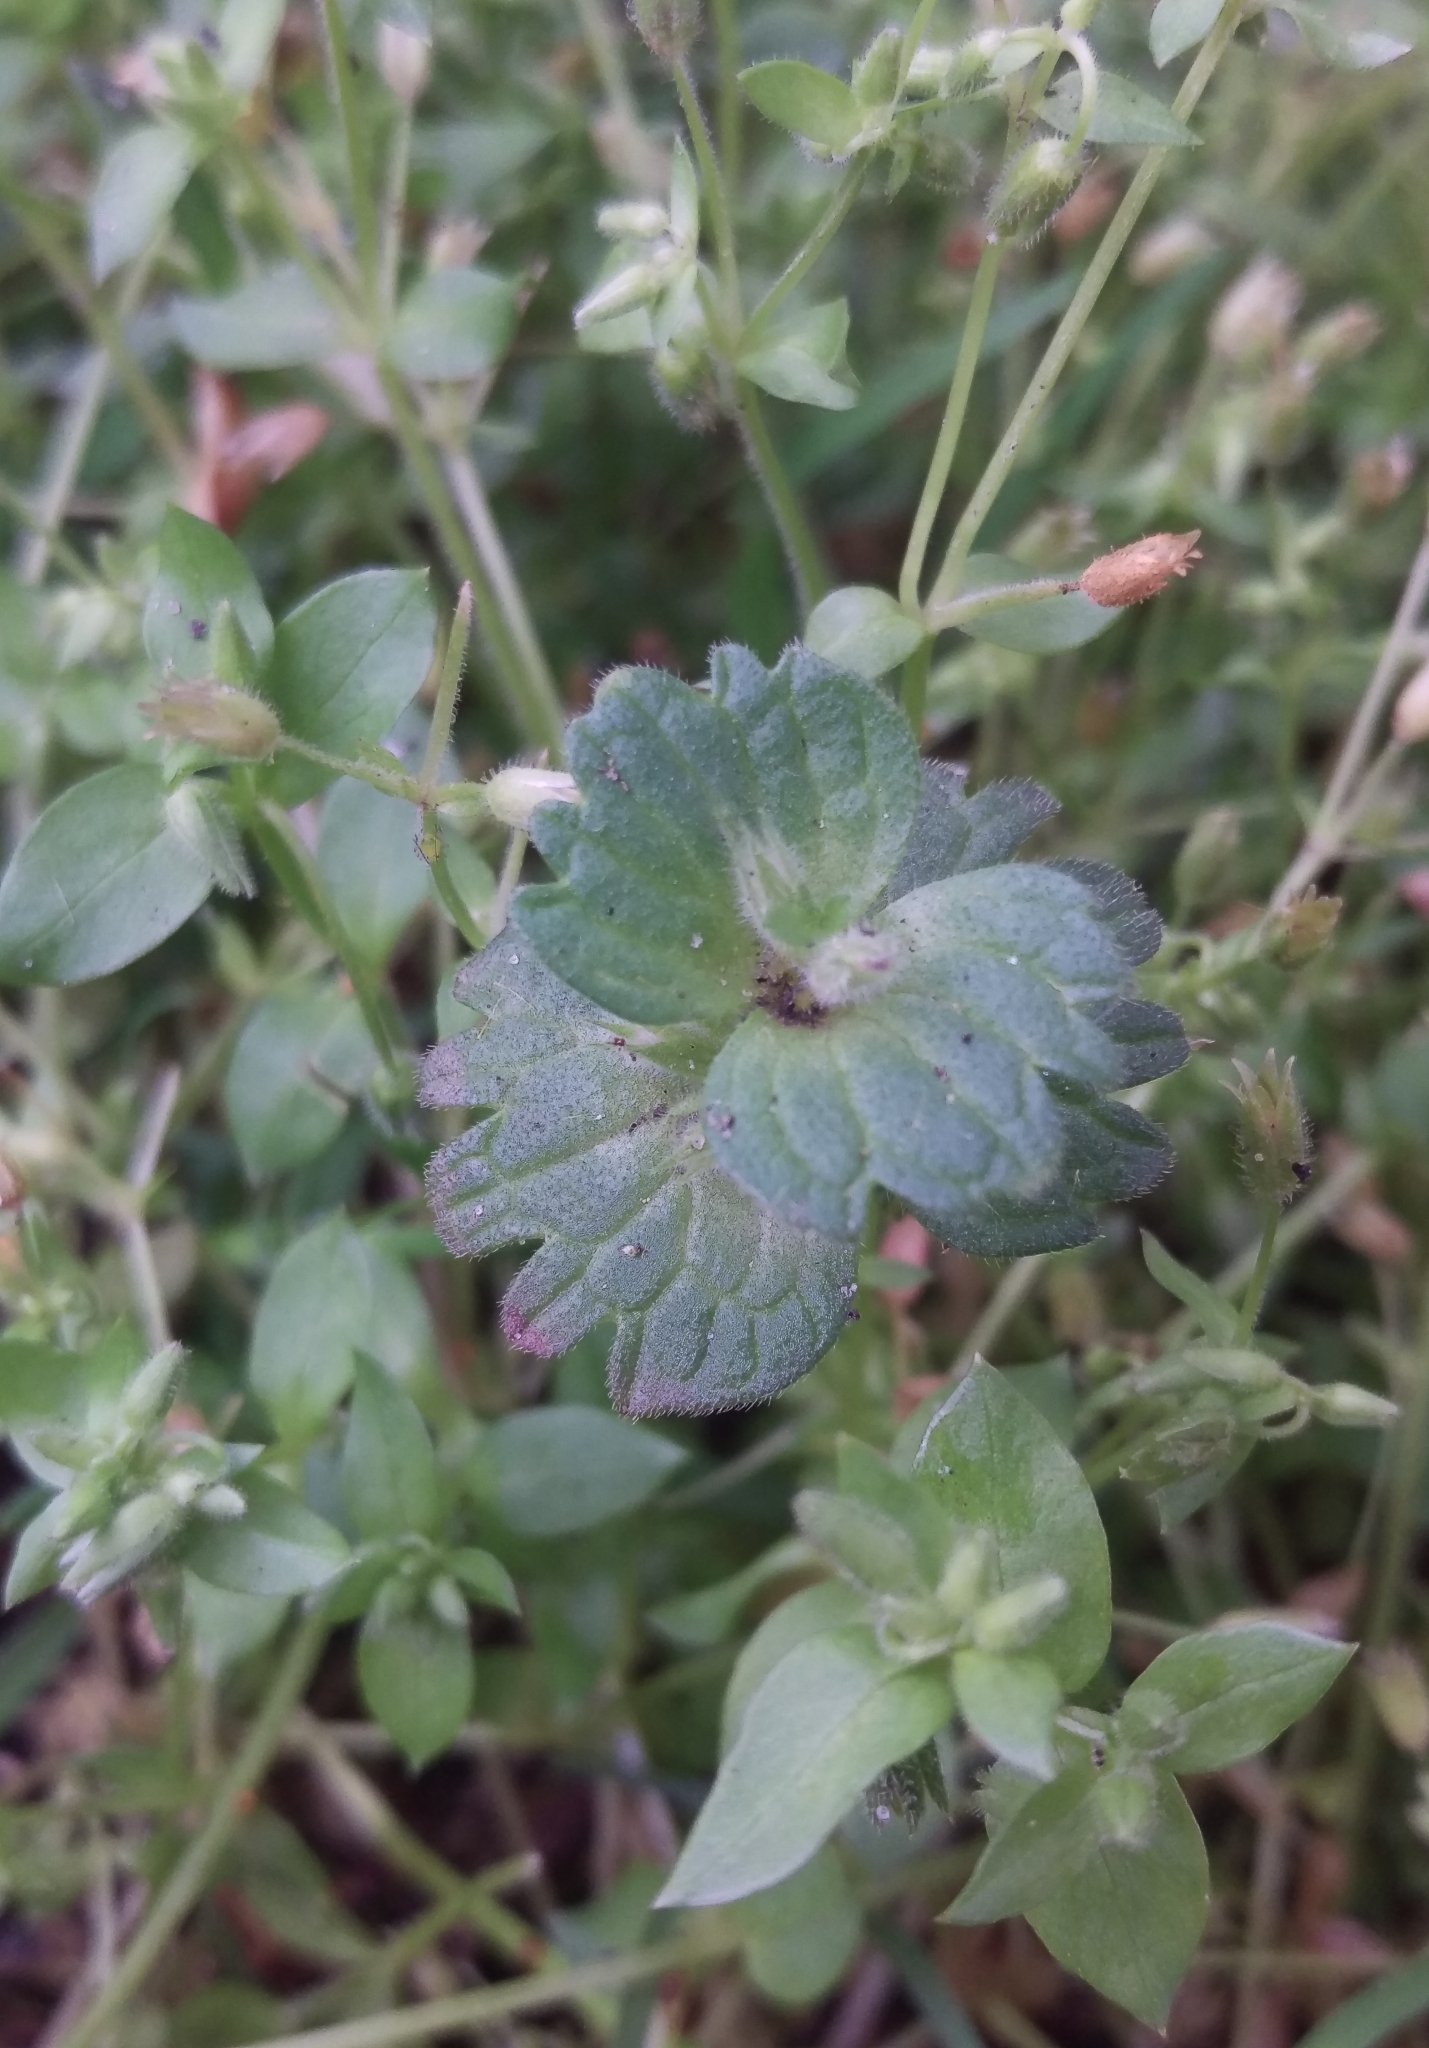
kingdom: Plantae
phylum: Tracheophyta
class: Magnoliopsida
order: Lamiales
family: Lamiaceae
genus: Lamium
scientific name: Lamium amplexicaule
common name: Henbit dead-nettle
